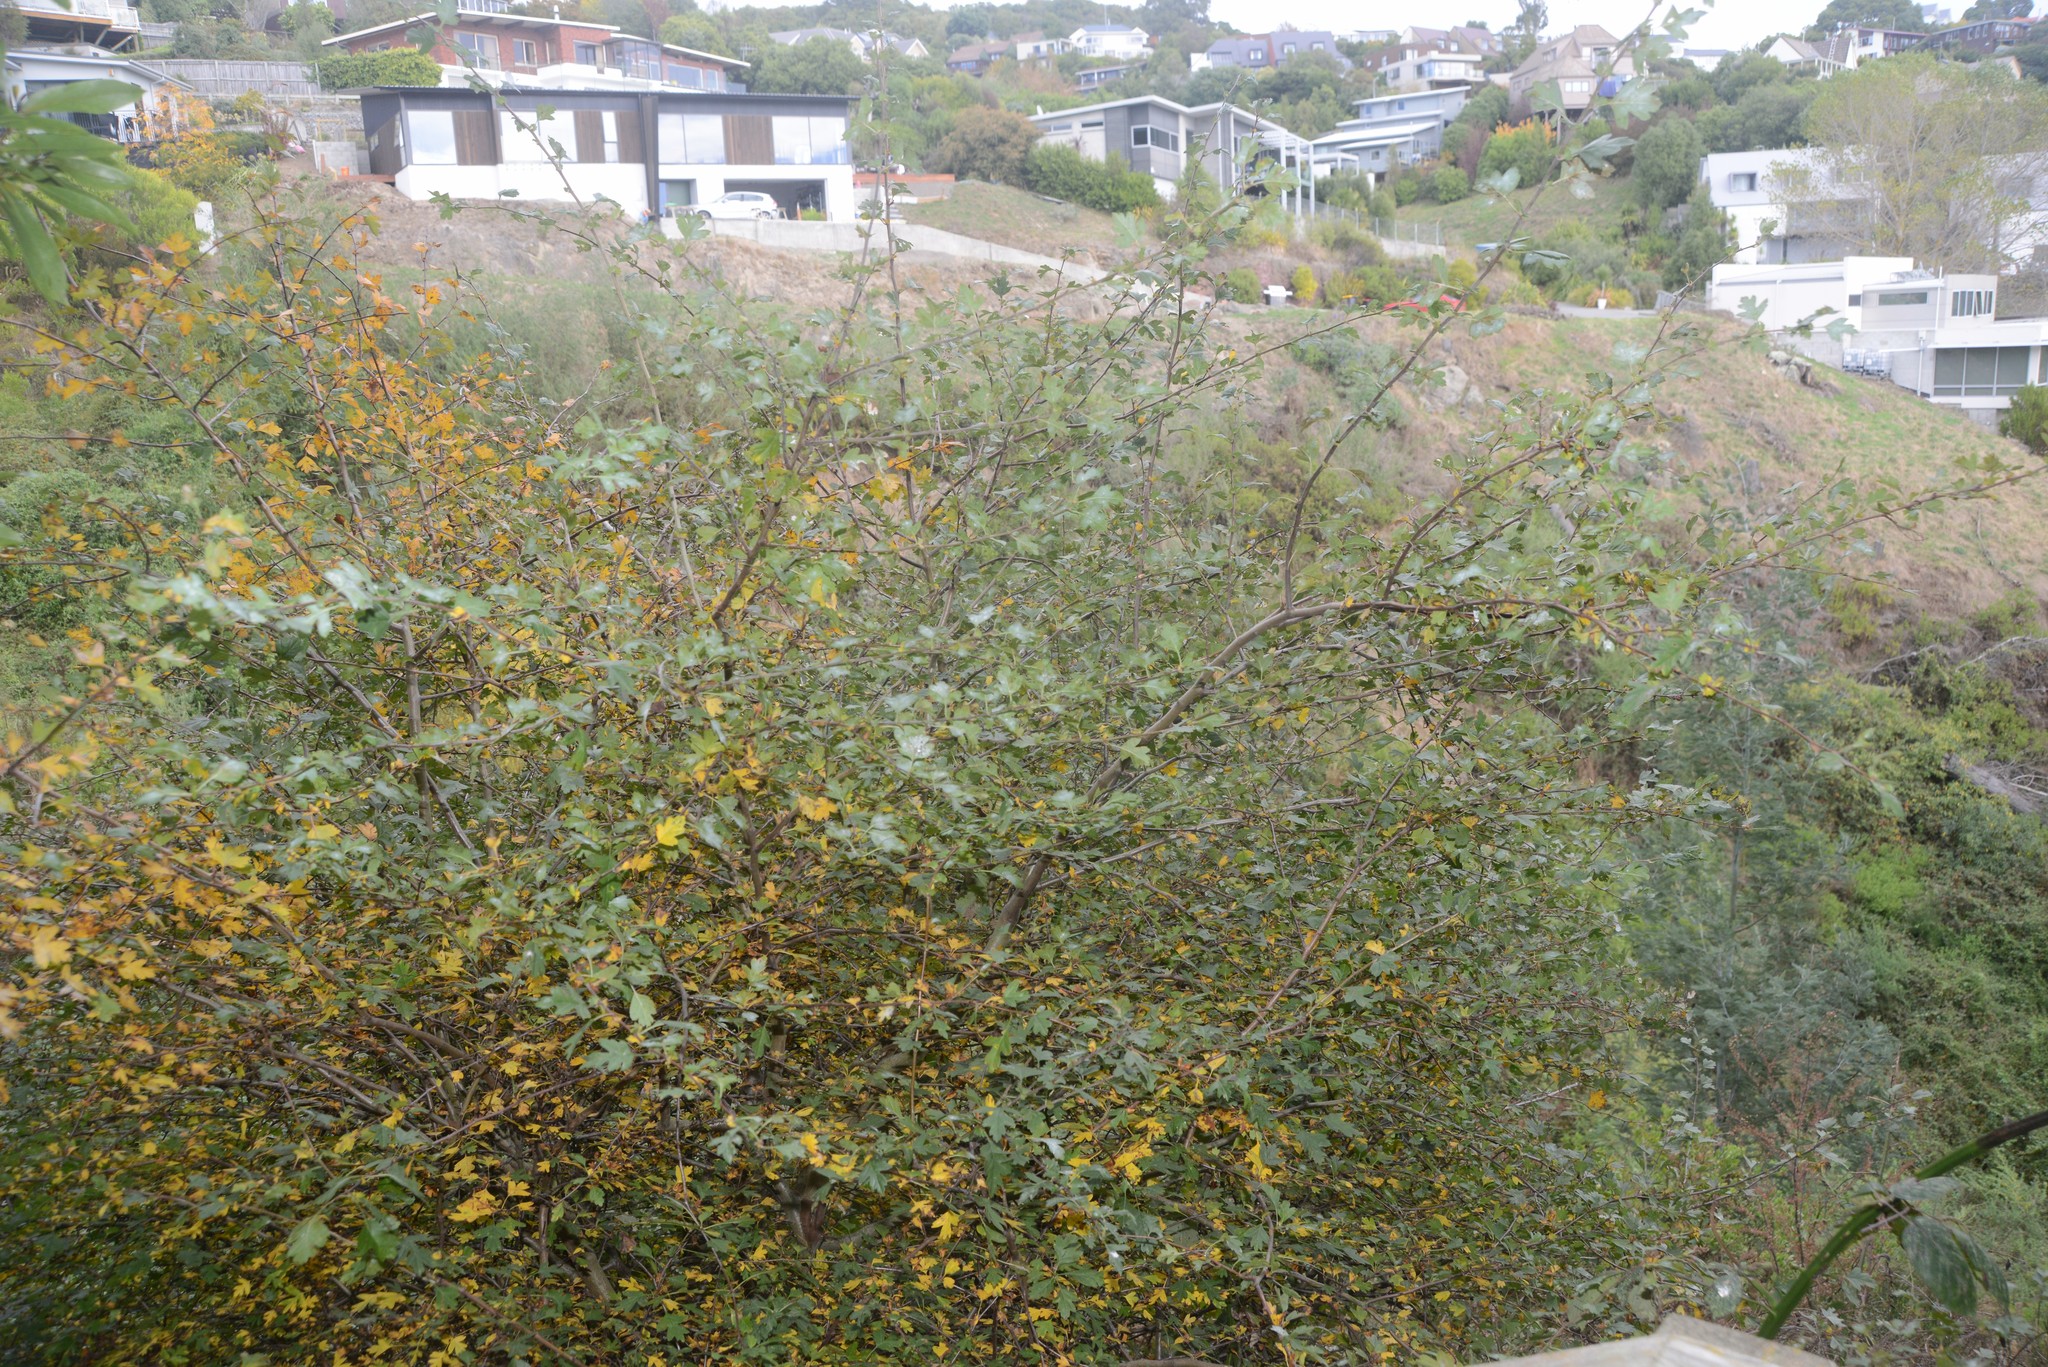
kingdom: Plantae
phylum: Tracheophyta
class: Magnoliopsida
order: Rosales
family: Rosaceae
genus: Crataegus
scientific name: Crataegus monogyna
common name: Hawthorn
